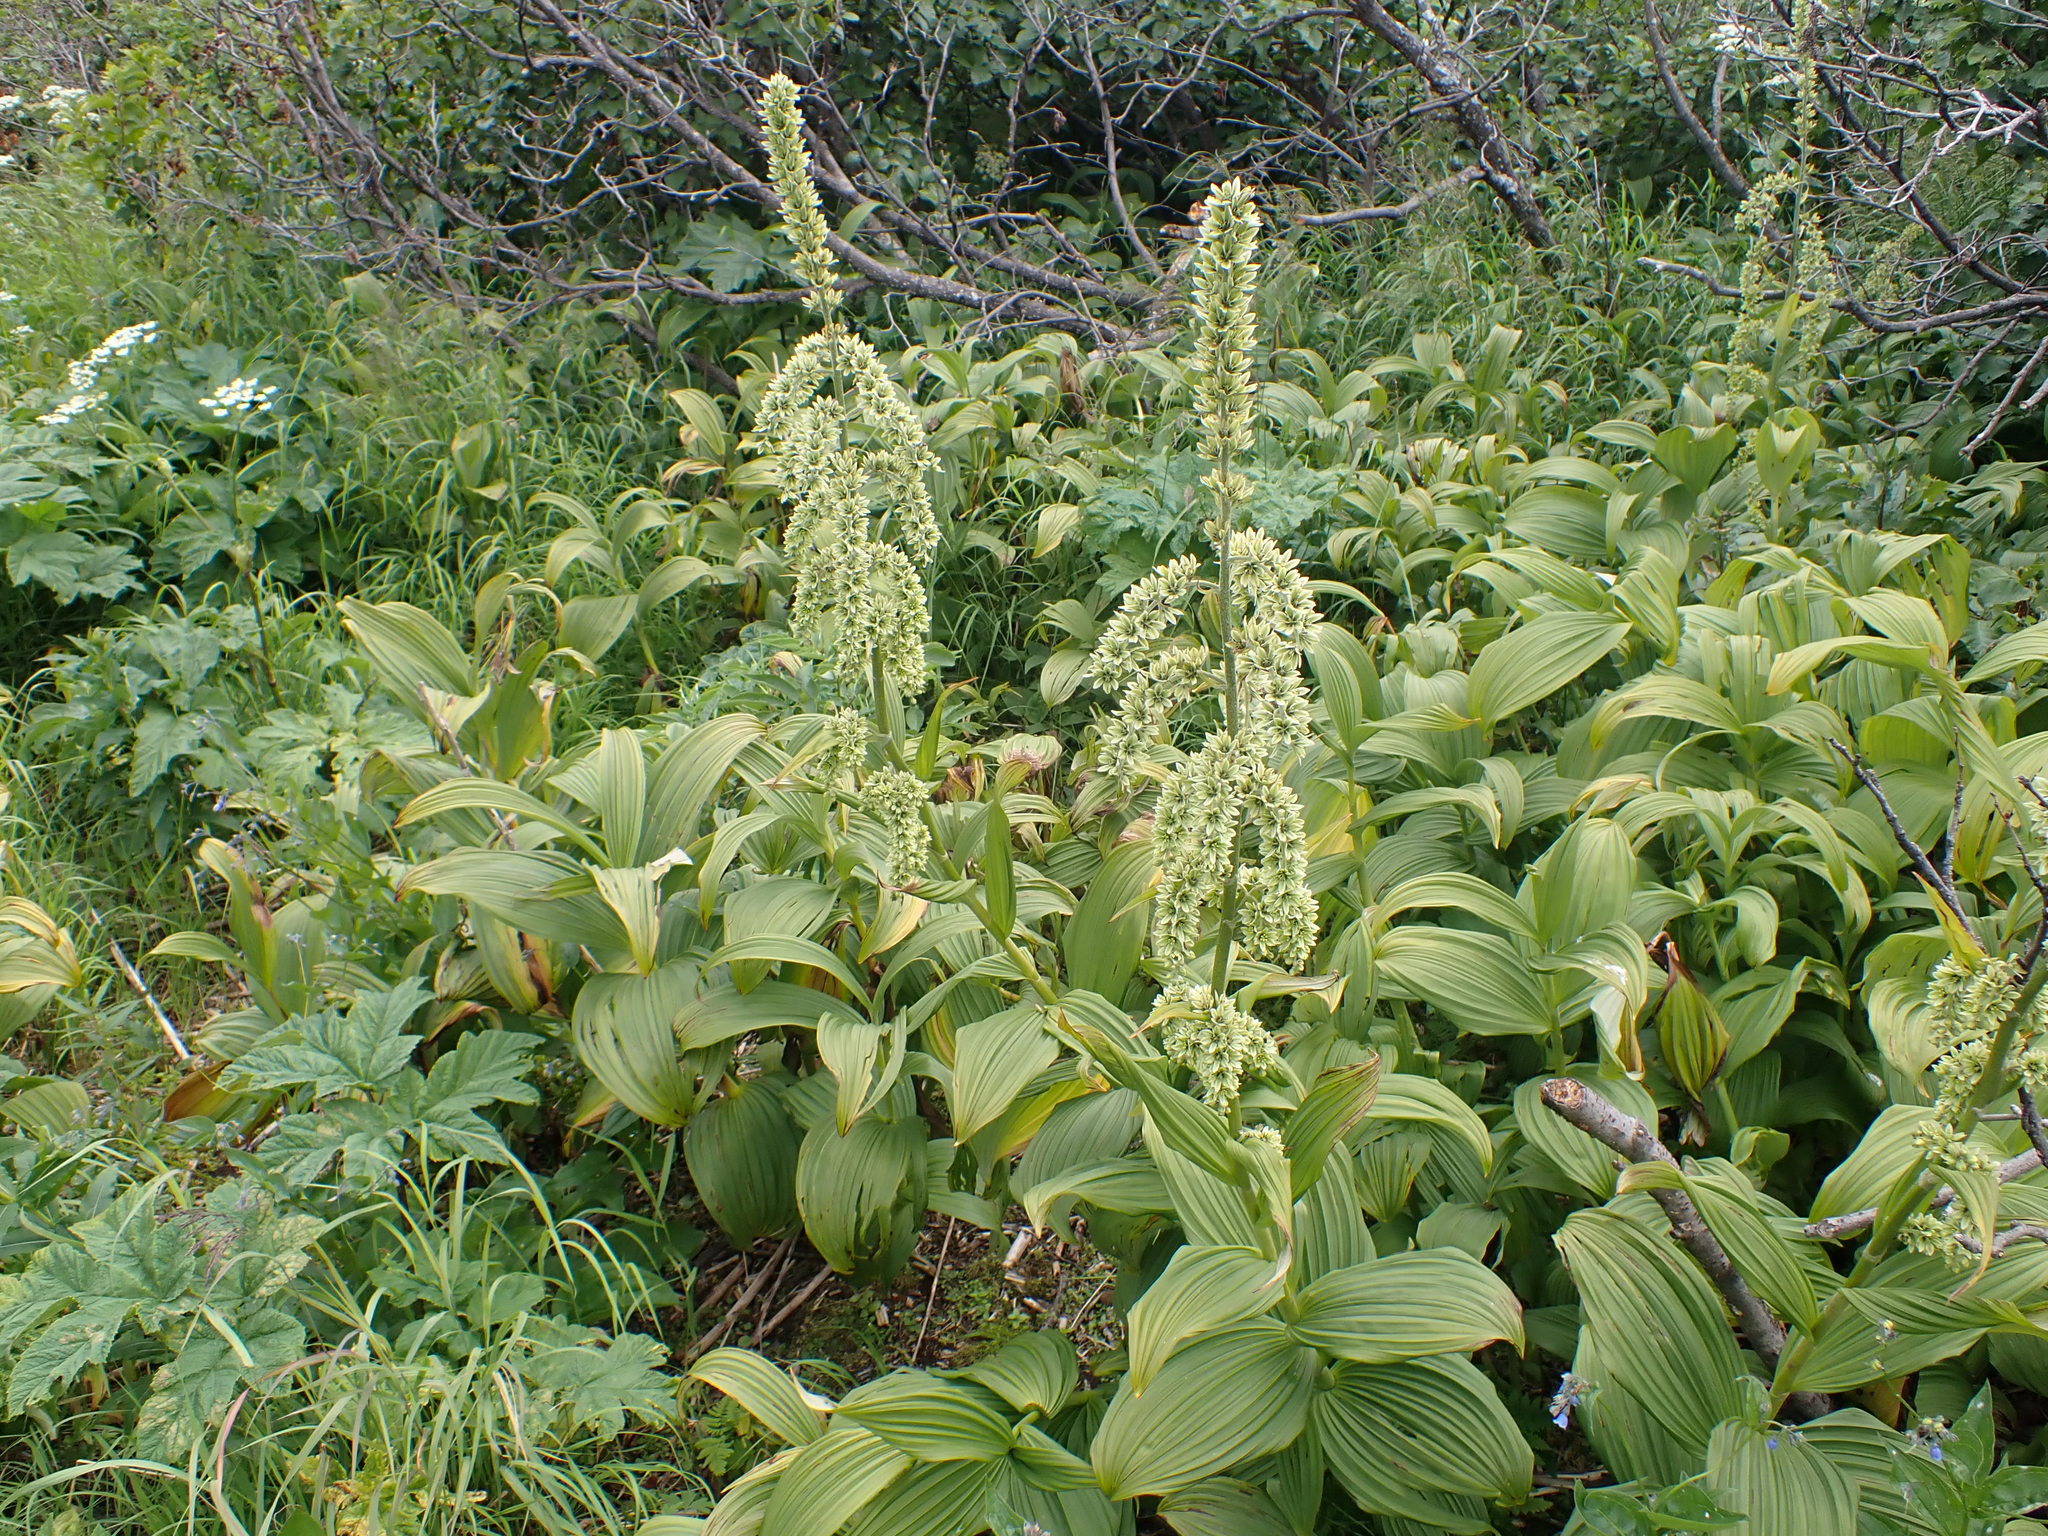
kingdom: Plantae
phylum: Tracheophyta
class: Liliopsida
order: Liliales
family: Melanthiaceae
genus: Veratrum
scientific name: Veratrum viride
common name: American false hellebore
